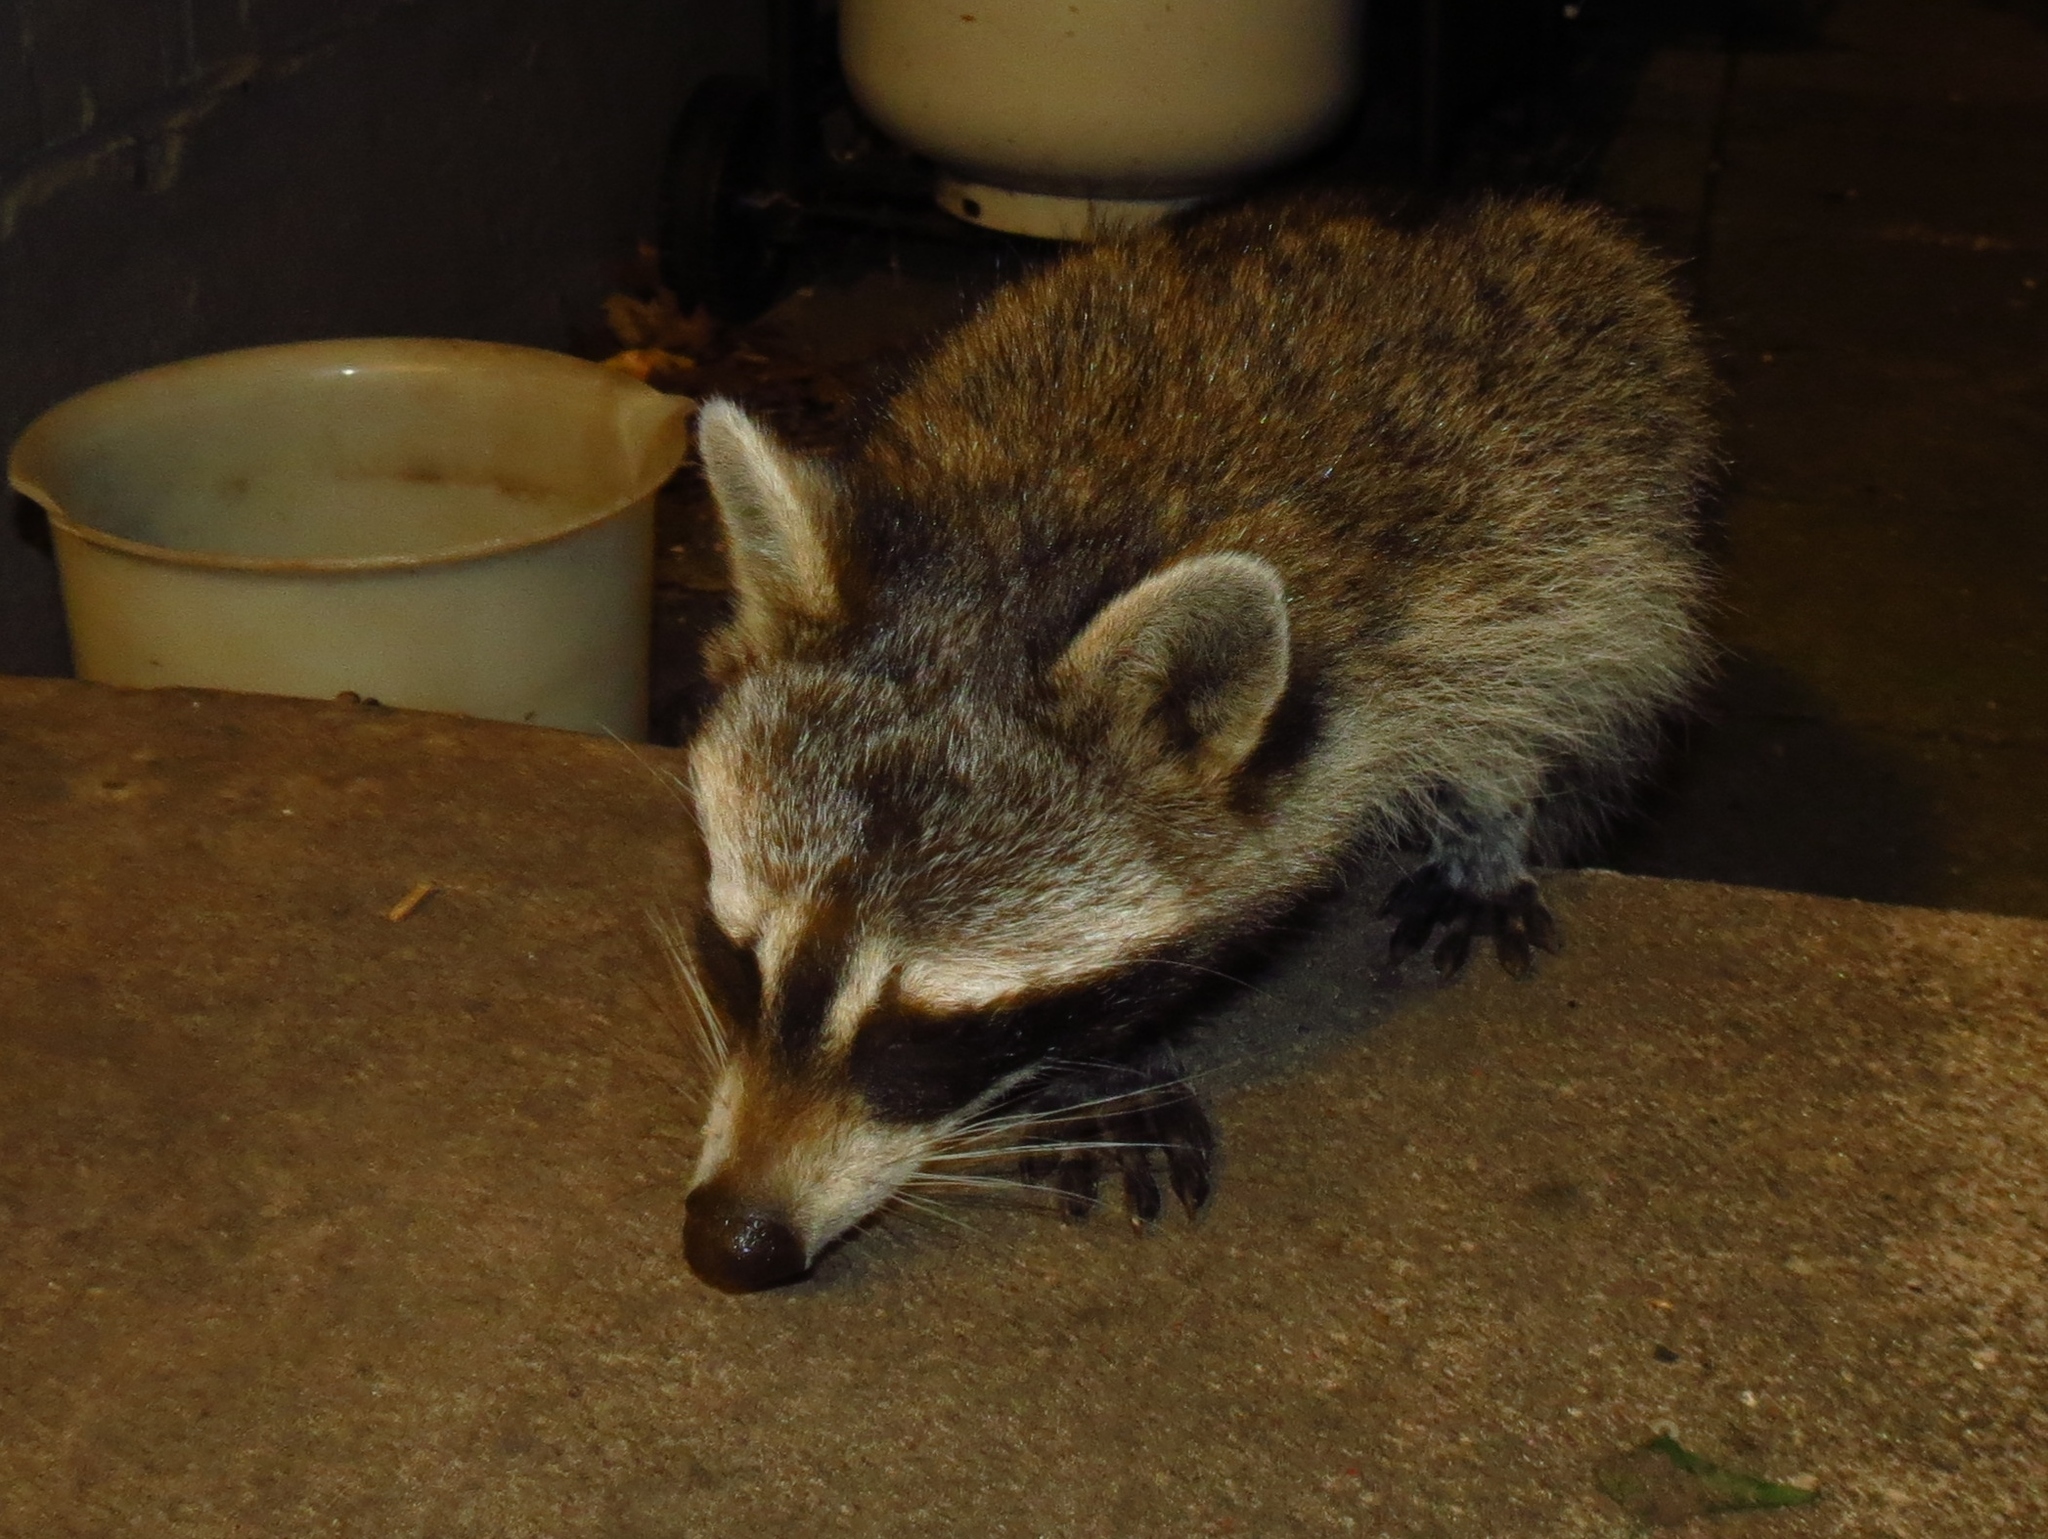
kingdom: Animalia
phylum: Chordata
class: Mammalia
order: Carnivora
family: Procyonidae
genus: Procyon
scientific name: Procyon lotor
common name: Raccoon
